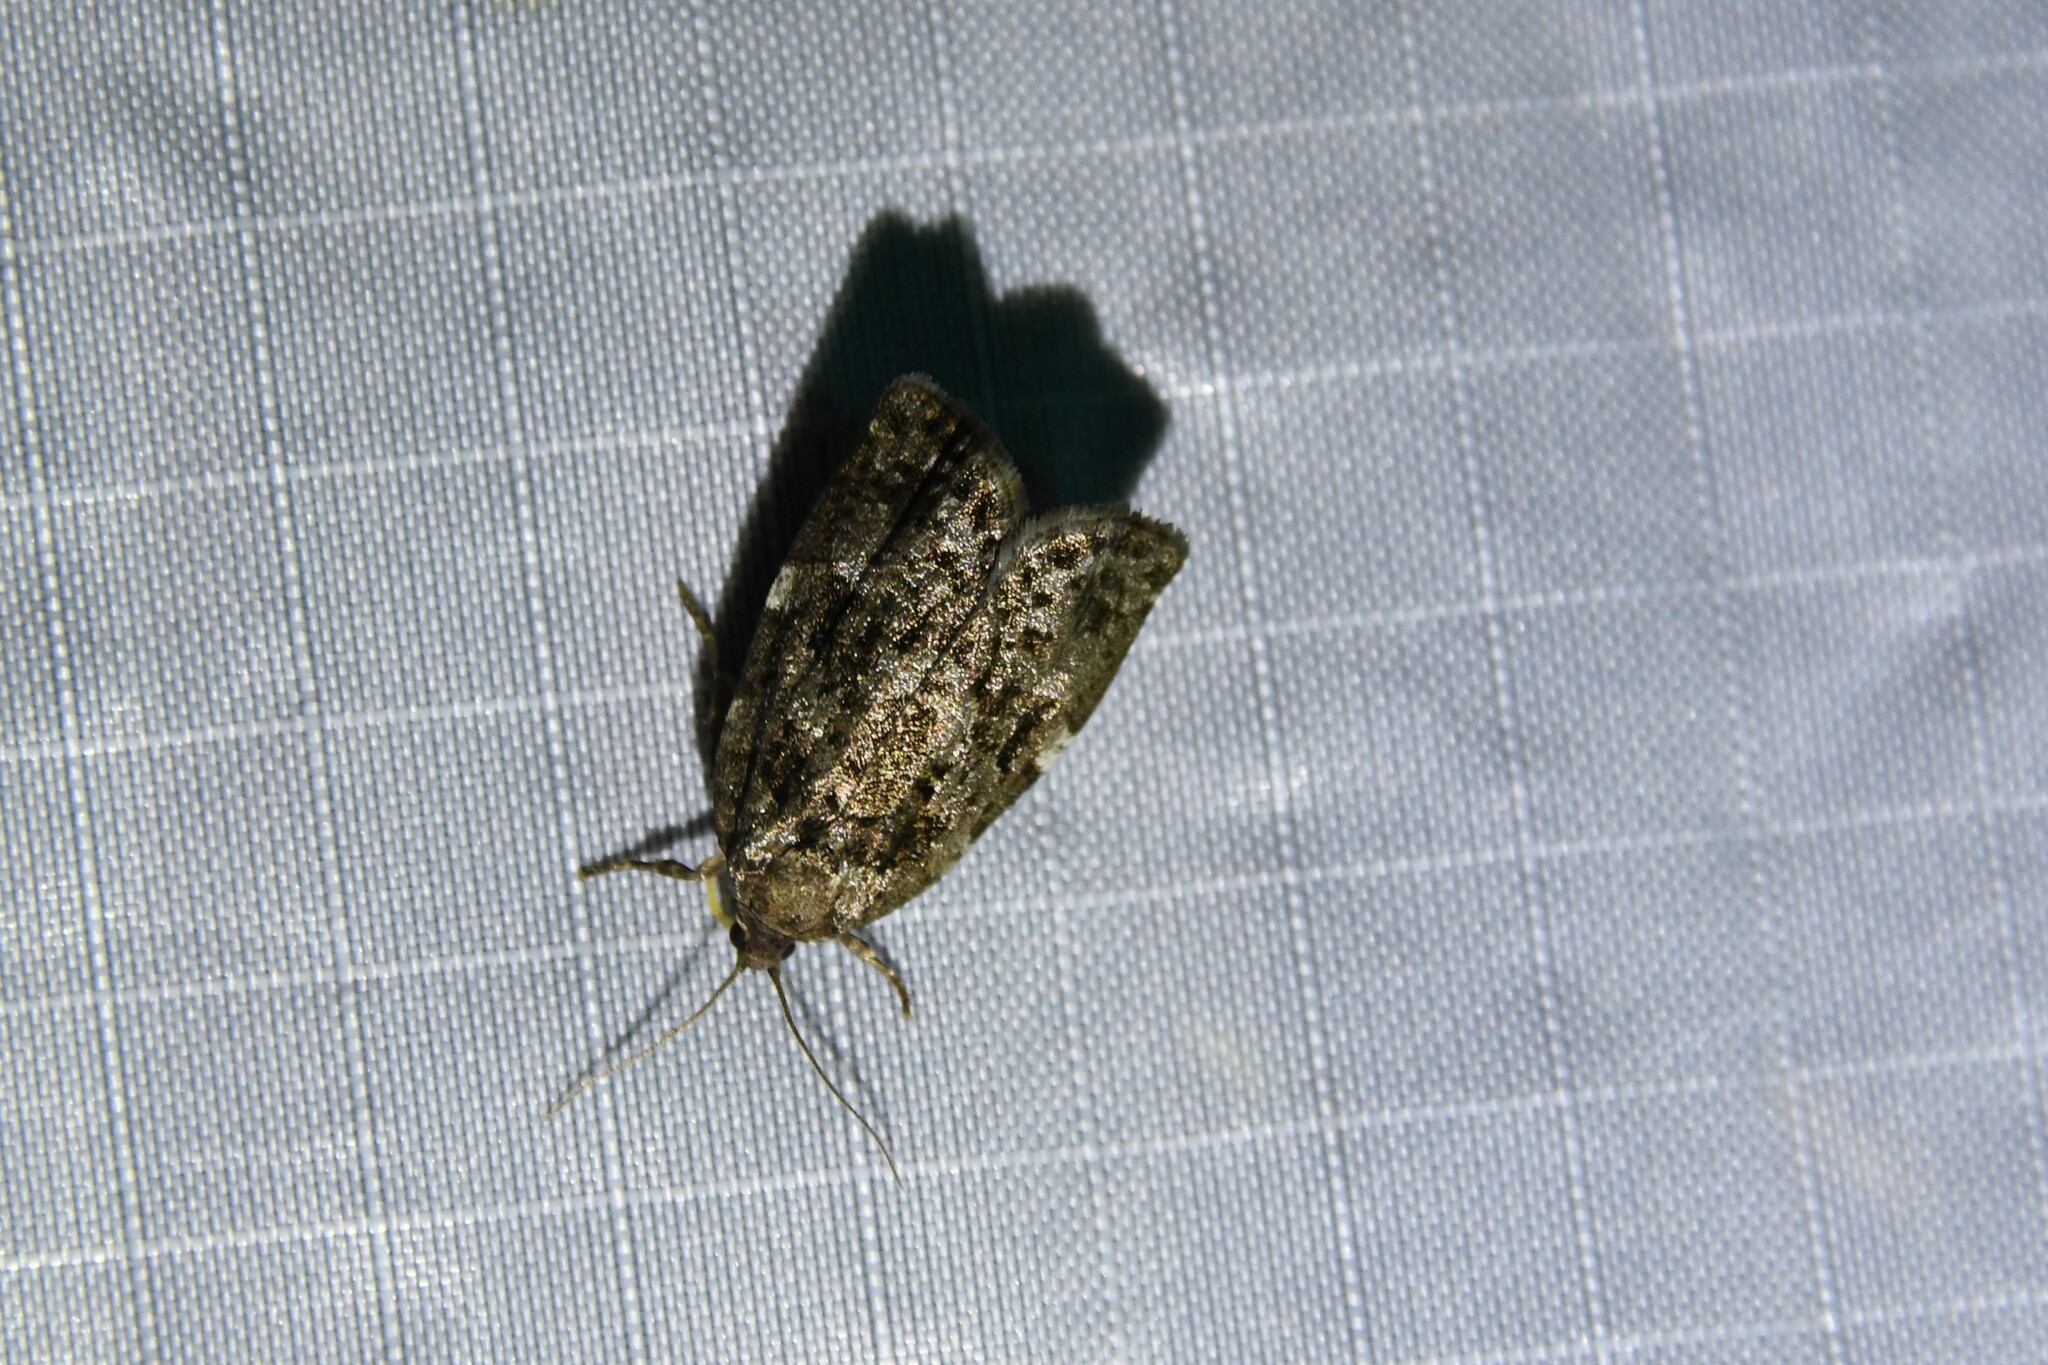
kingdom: Animalia
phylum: Arthropoda
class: Insecta
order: Lepidoptera
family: Tortricidae
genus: Choristoneura
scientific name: Choristoneura fumiferana
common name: Spruce budworm
